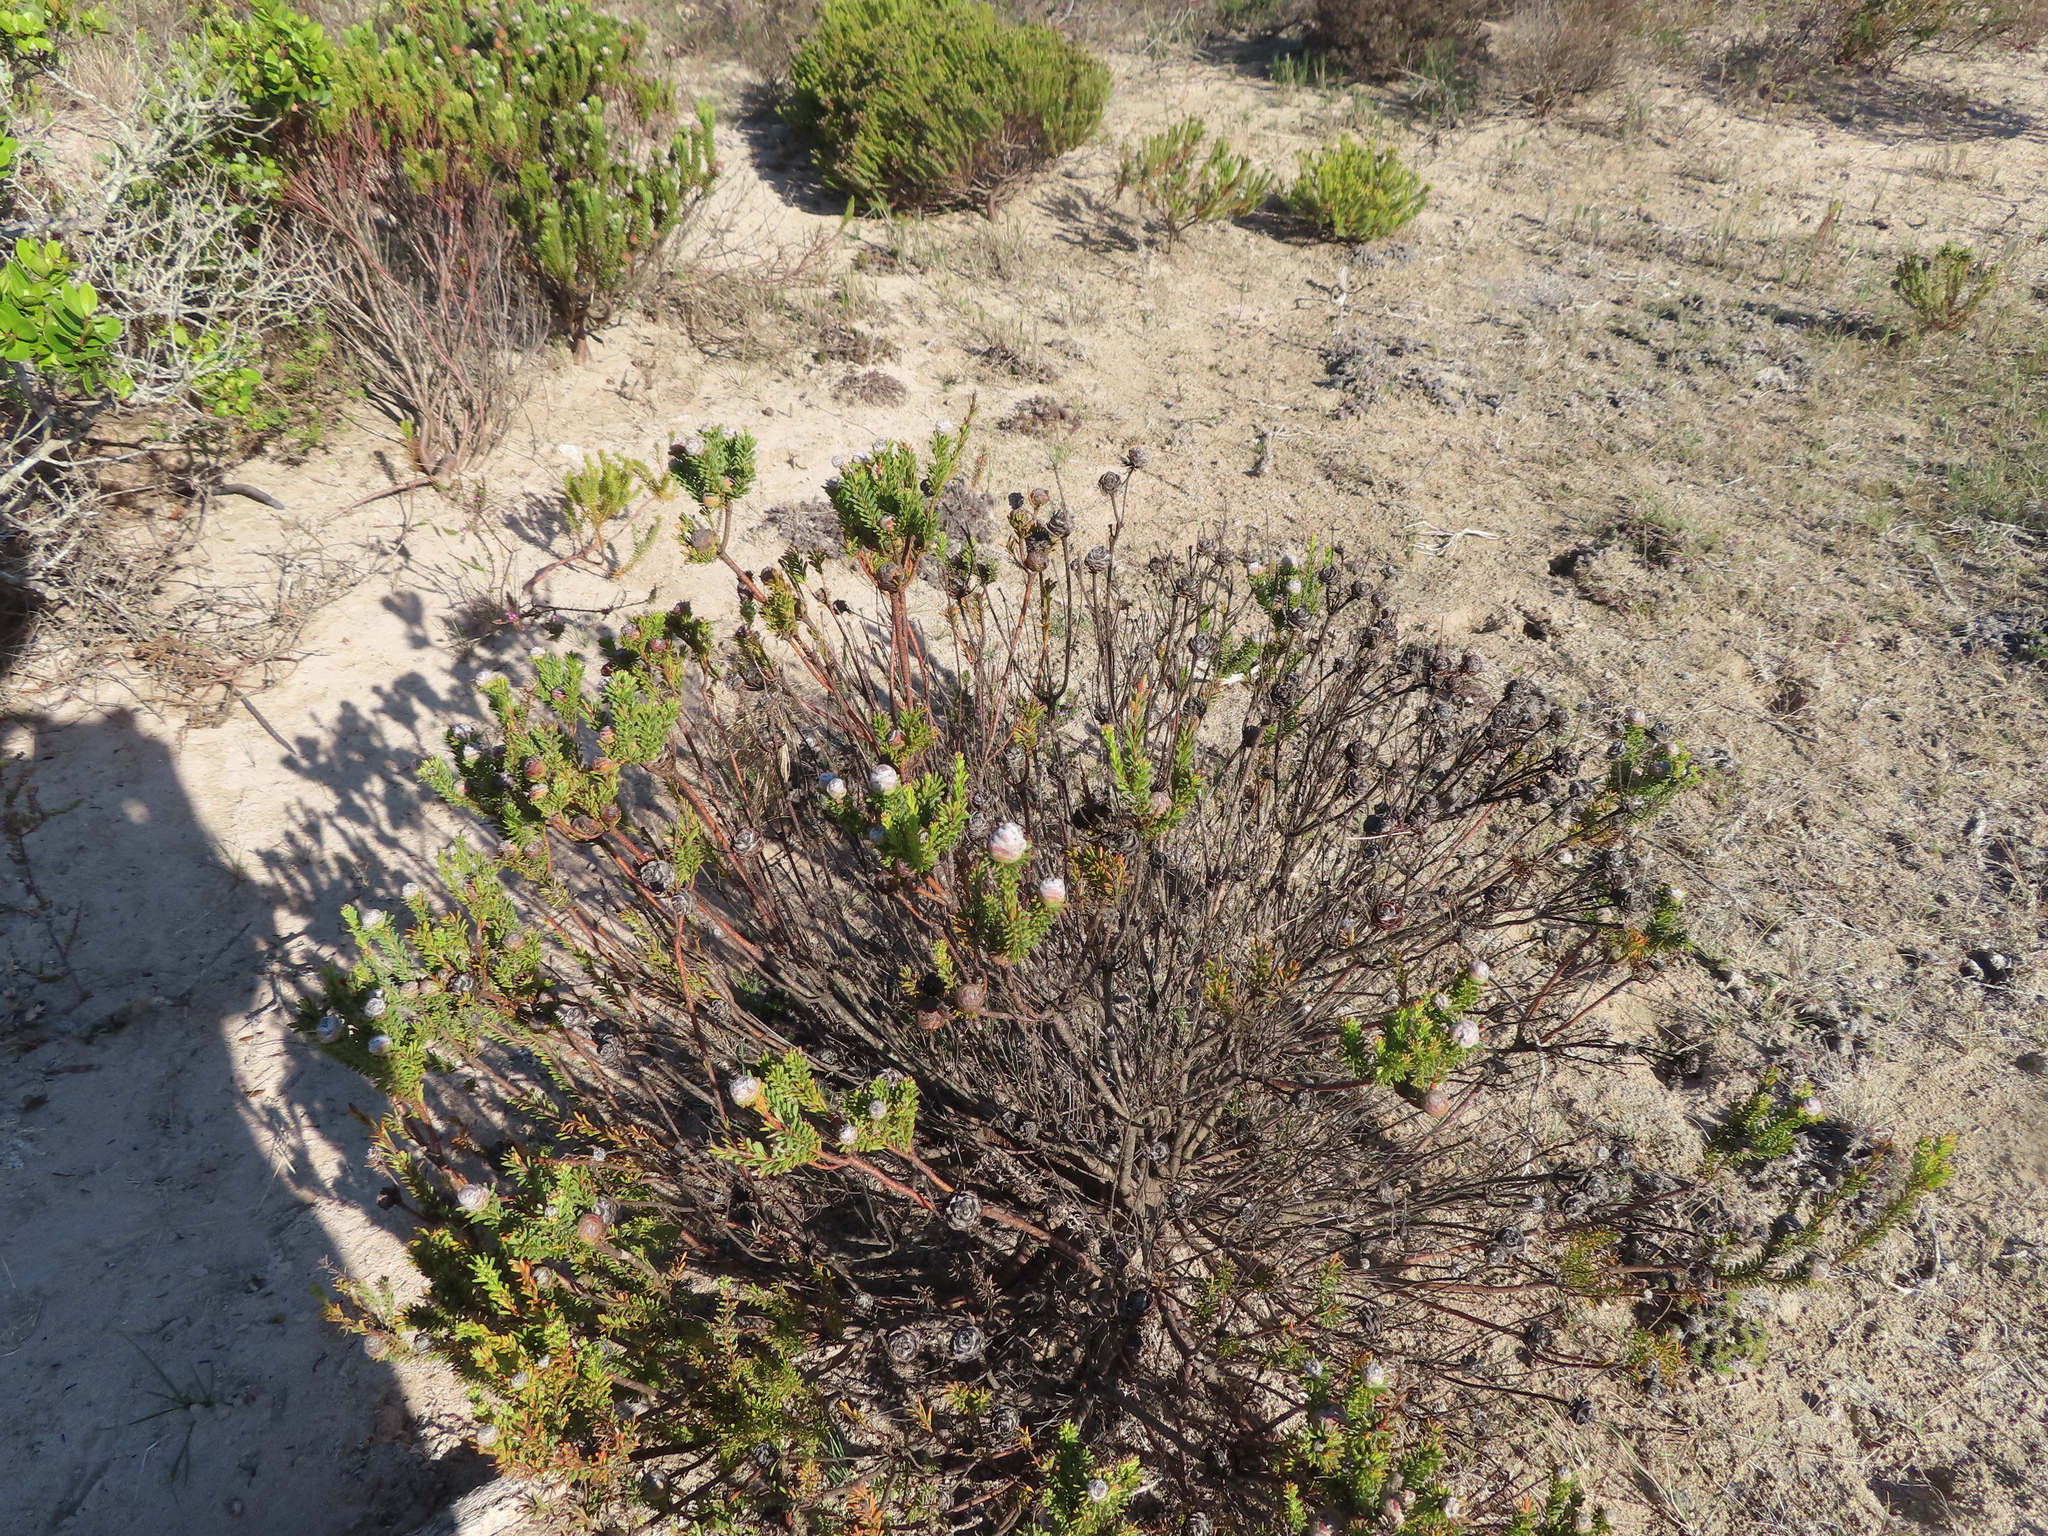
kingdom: Plantae
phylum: Tracheophyta
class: Magnoliopsida
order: Proteales
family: Proteaceae
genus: Leucadendron
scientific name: Leucadendron linifolium
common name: Line-leaf conebush
